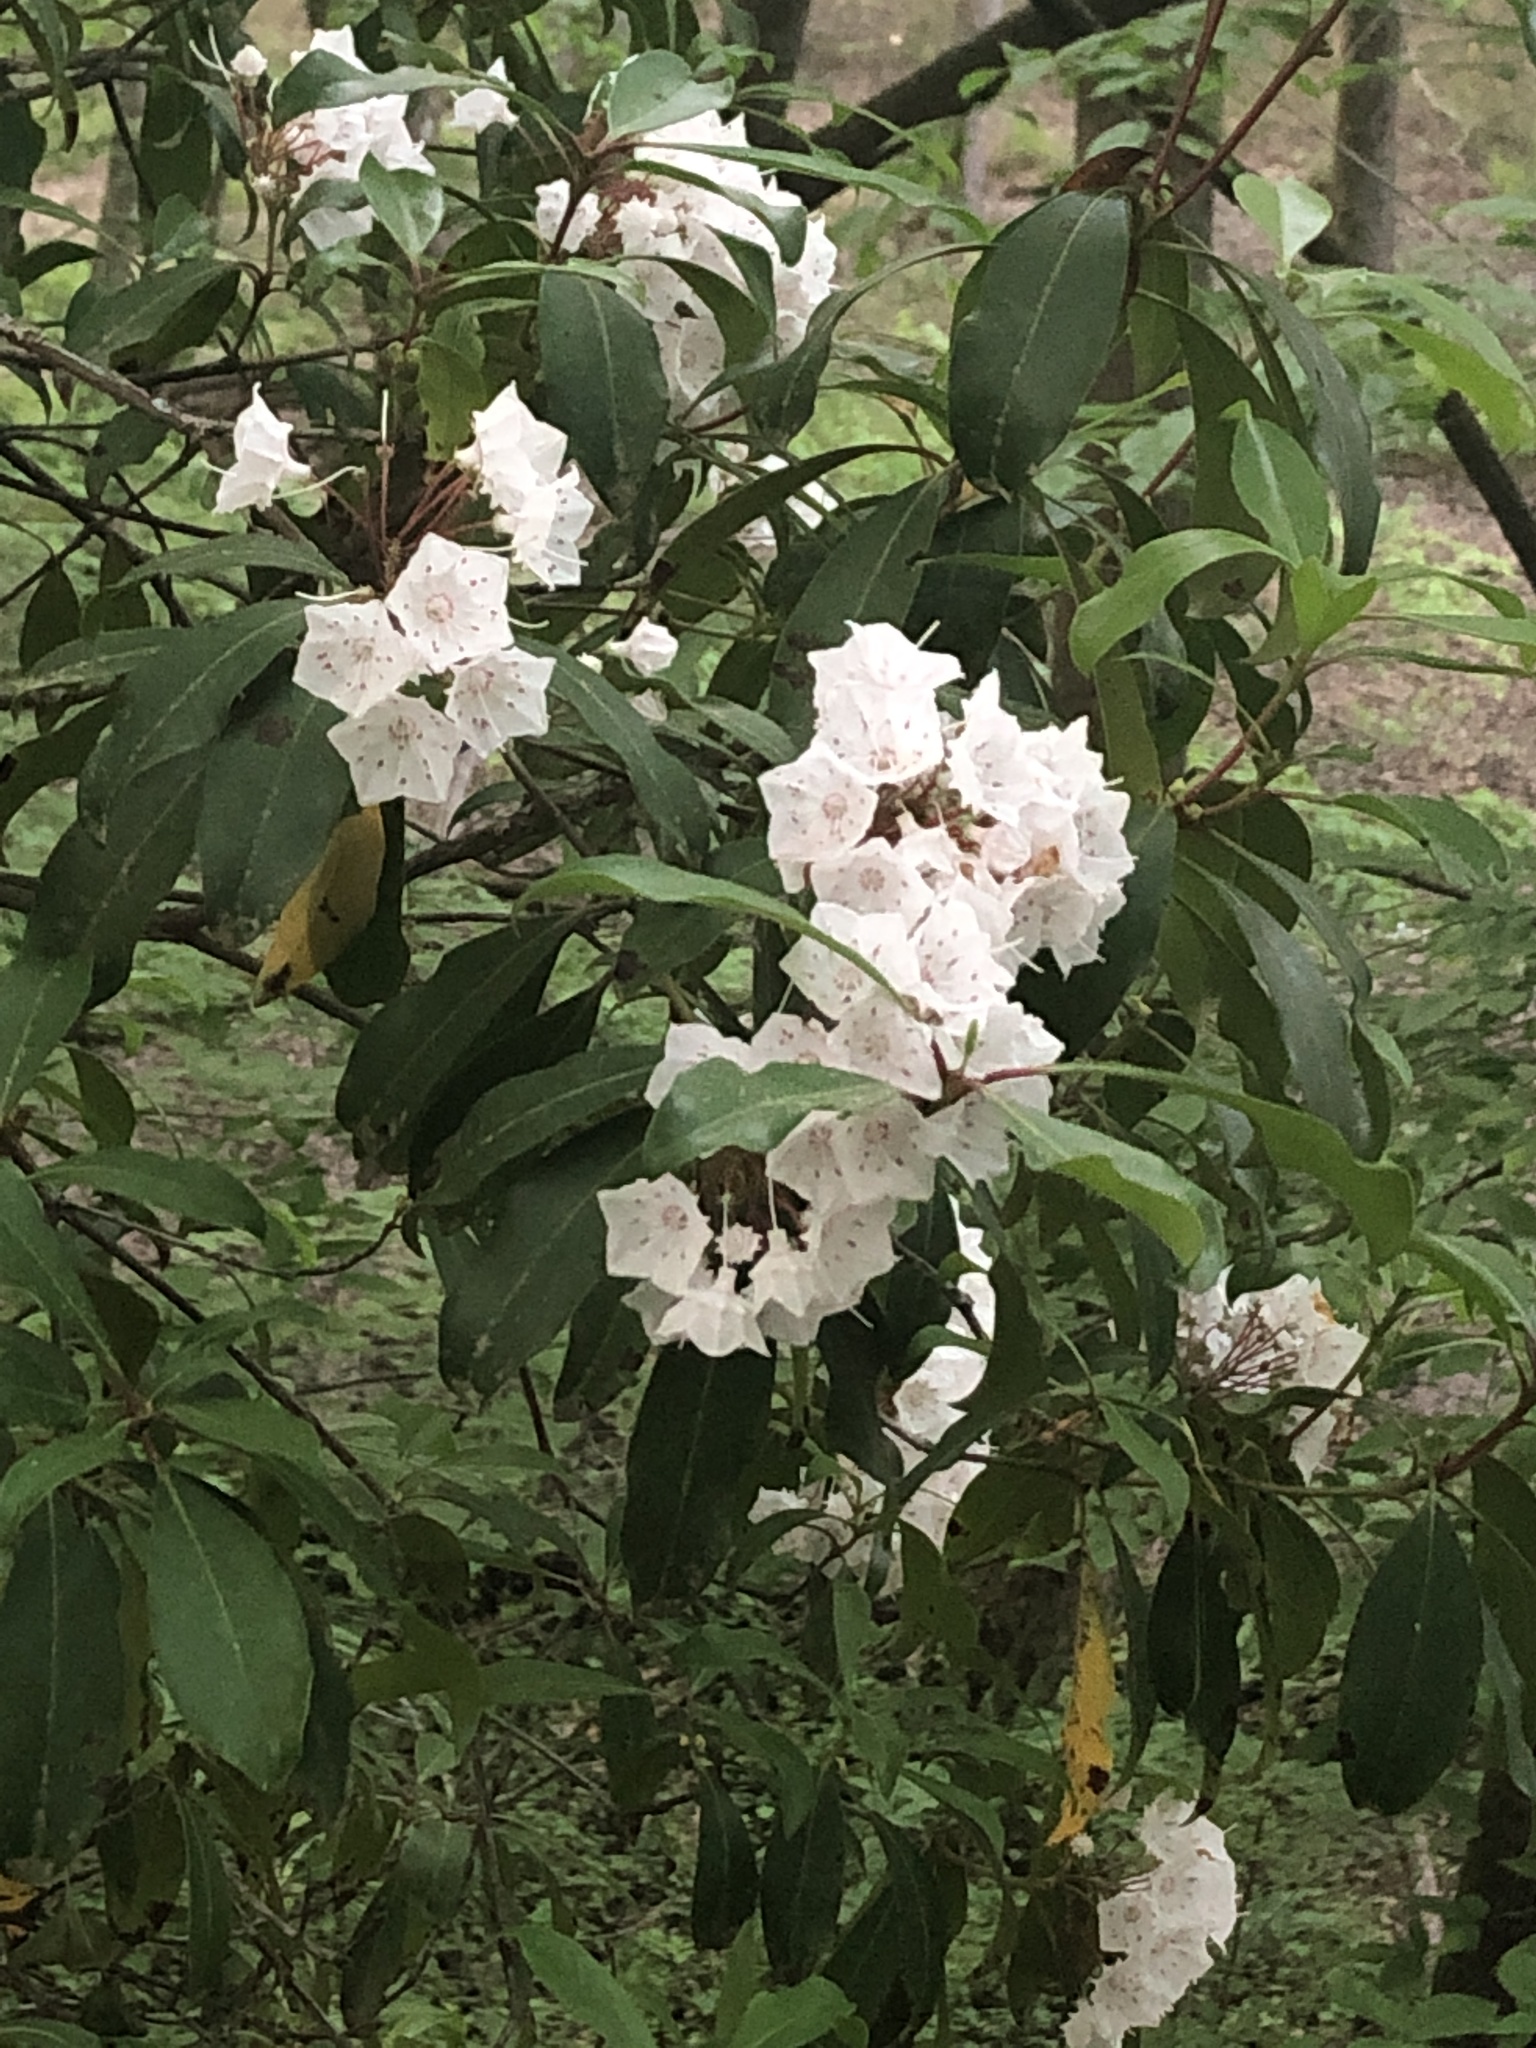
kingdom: Plantae
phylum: Tracheophyta
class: Magnoliopsida
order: Ericales
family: Ericaceae
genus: Kalmia
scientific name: Kalmia latifolia
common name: Mountain-laurel
